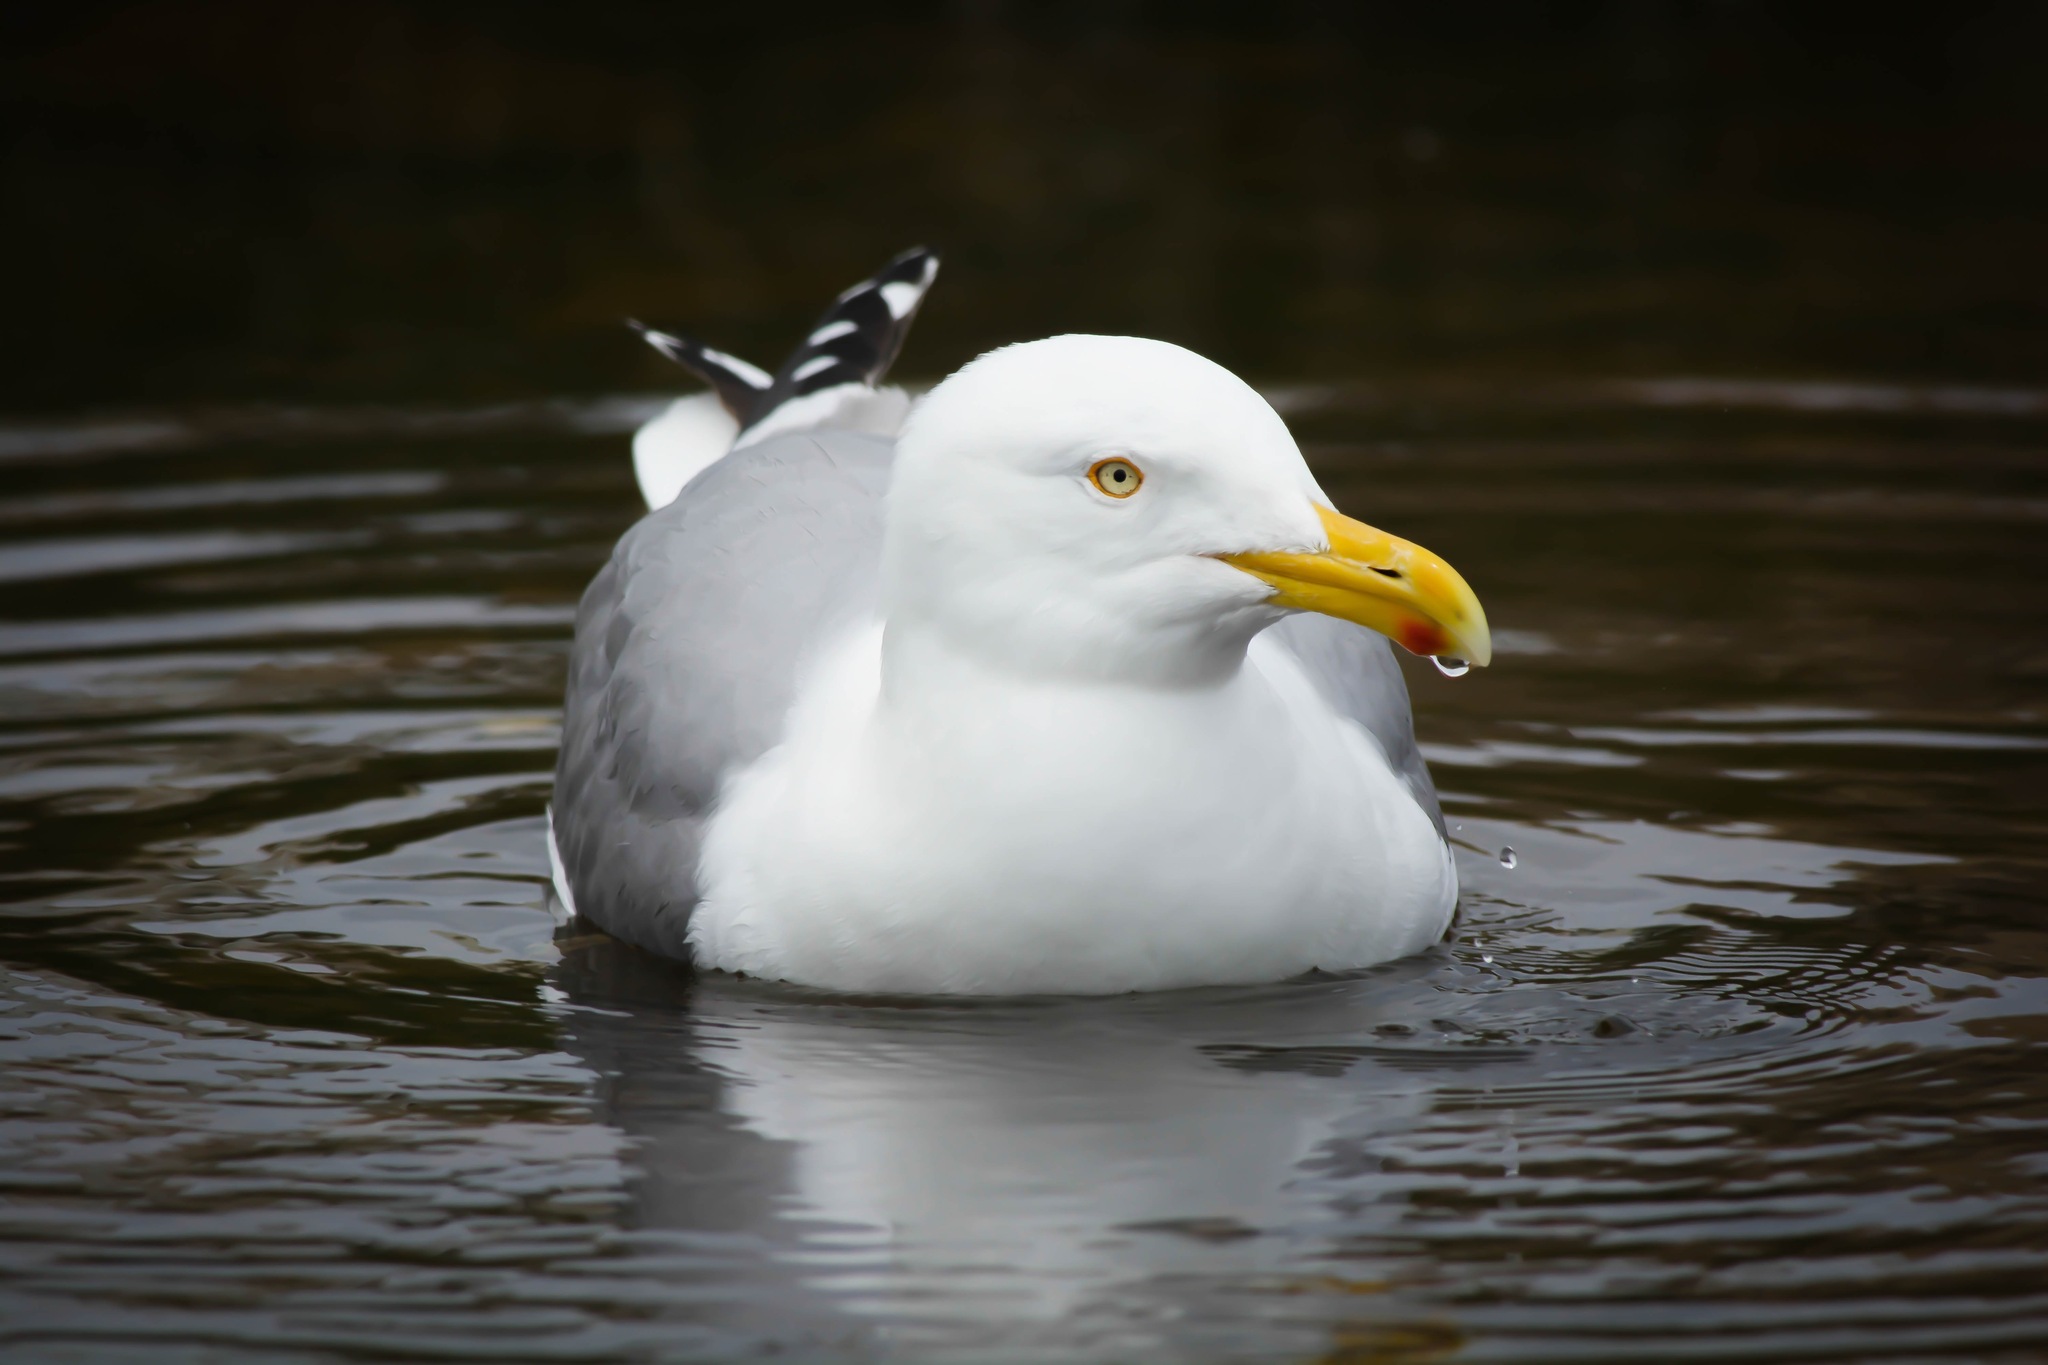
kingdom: Animalia
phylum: Chordata
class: Aves
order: Charadriiformes
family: Laridae
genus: Larus
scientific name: Larus argentatus
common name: Herring gull
